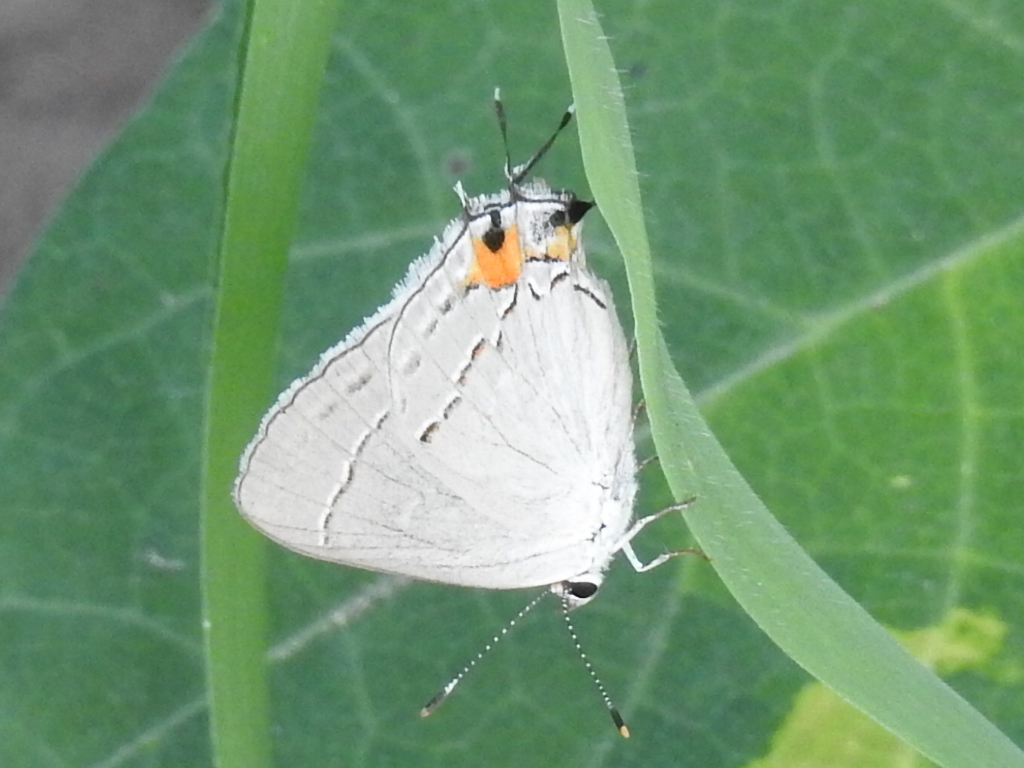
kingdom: Animalia
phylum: Arthropoda
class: Insecta
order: Lepidoptera
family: Lycaenidae
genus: Strymon
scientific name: Strymon melinus
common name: Gray hairstreak
